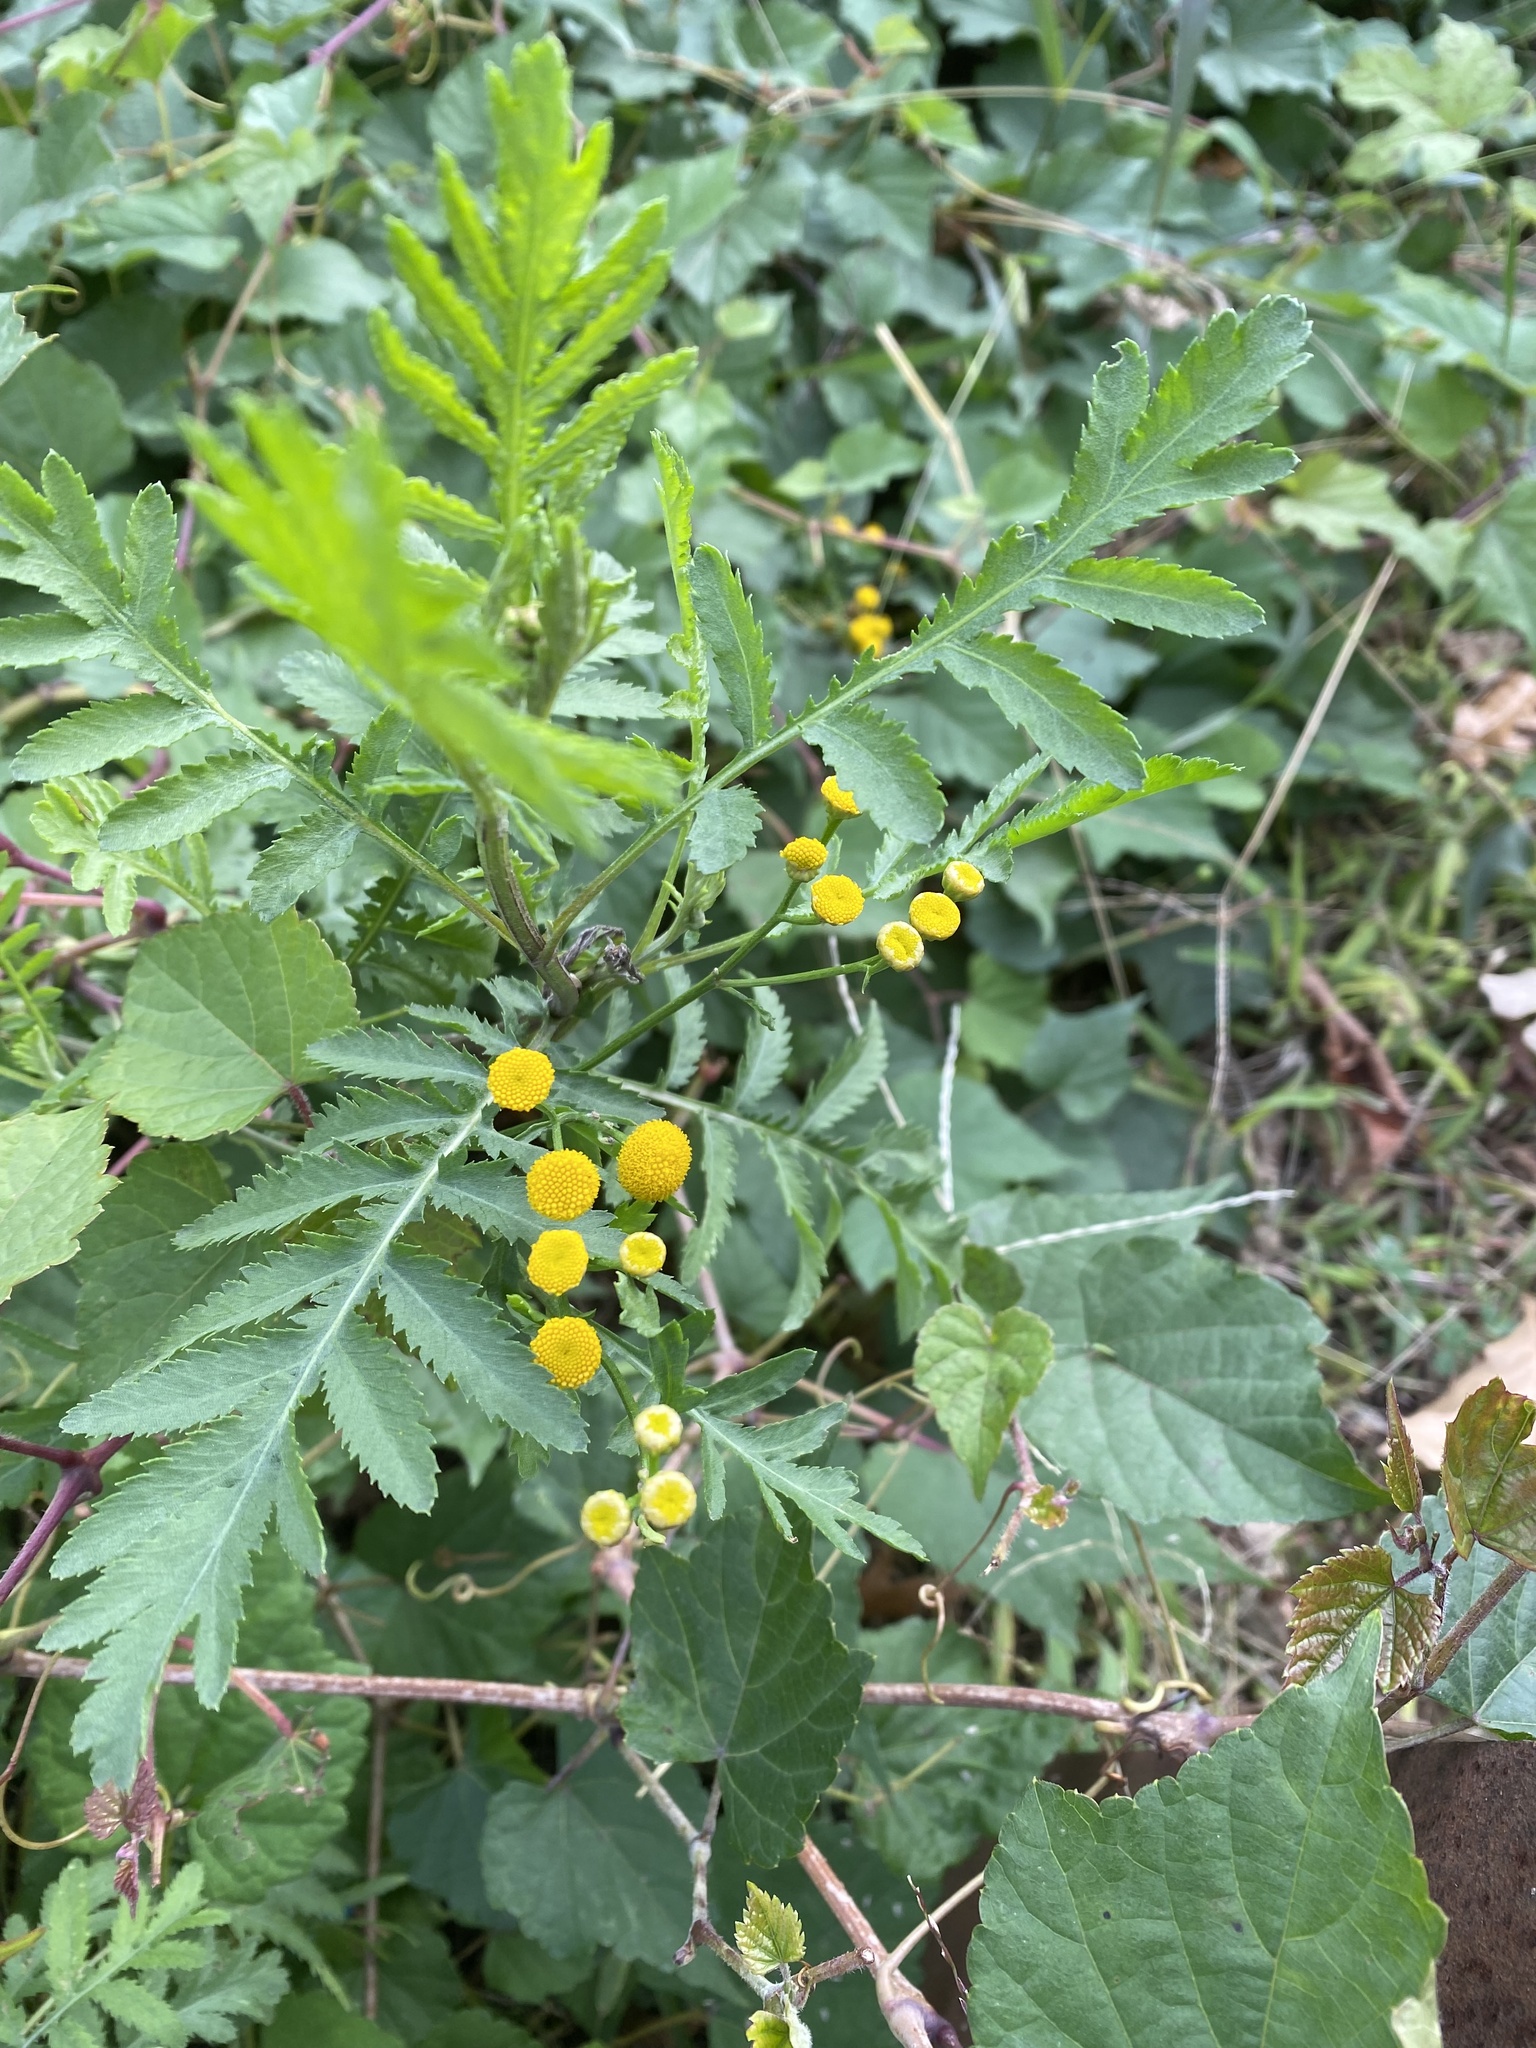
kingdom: Plantae
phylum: Tracheophyta
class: Magnoliopsida
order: Asterales
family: Asteraceae
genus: Tanacetum
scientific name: Tanacetum vulgare
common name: Common tansy
